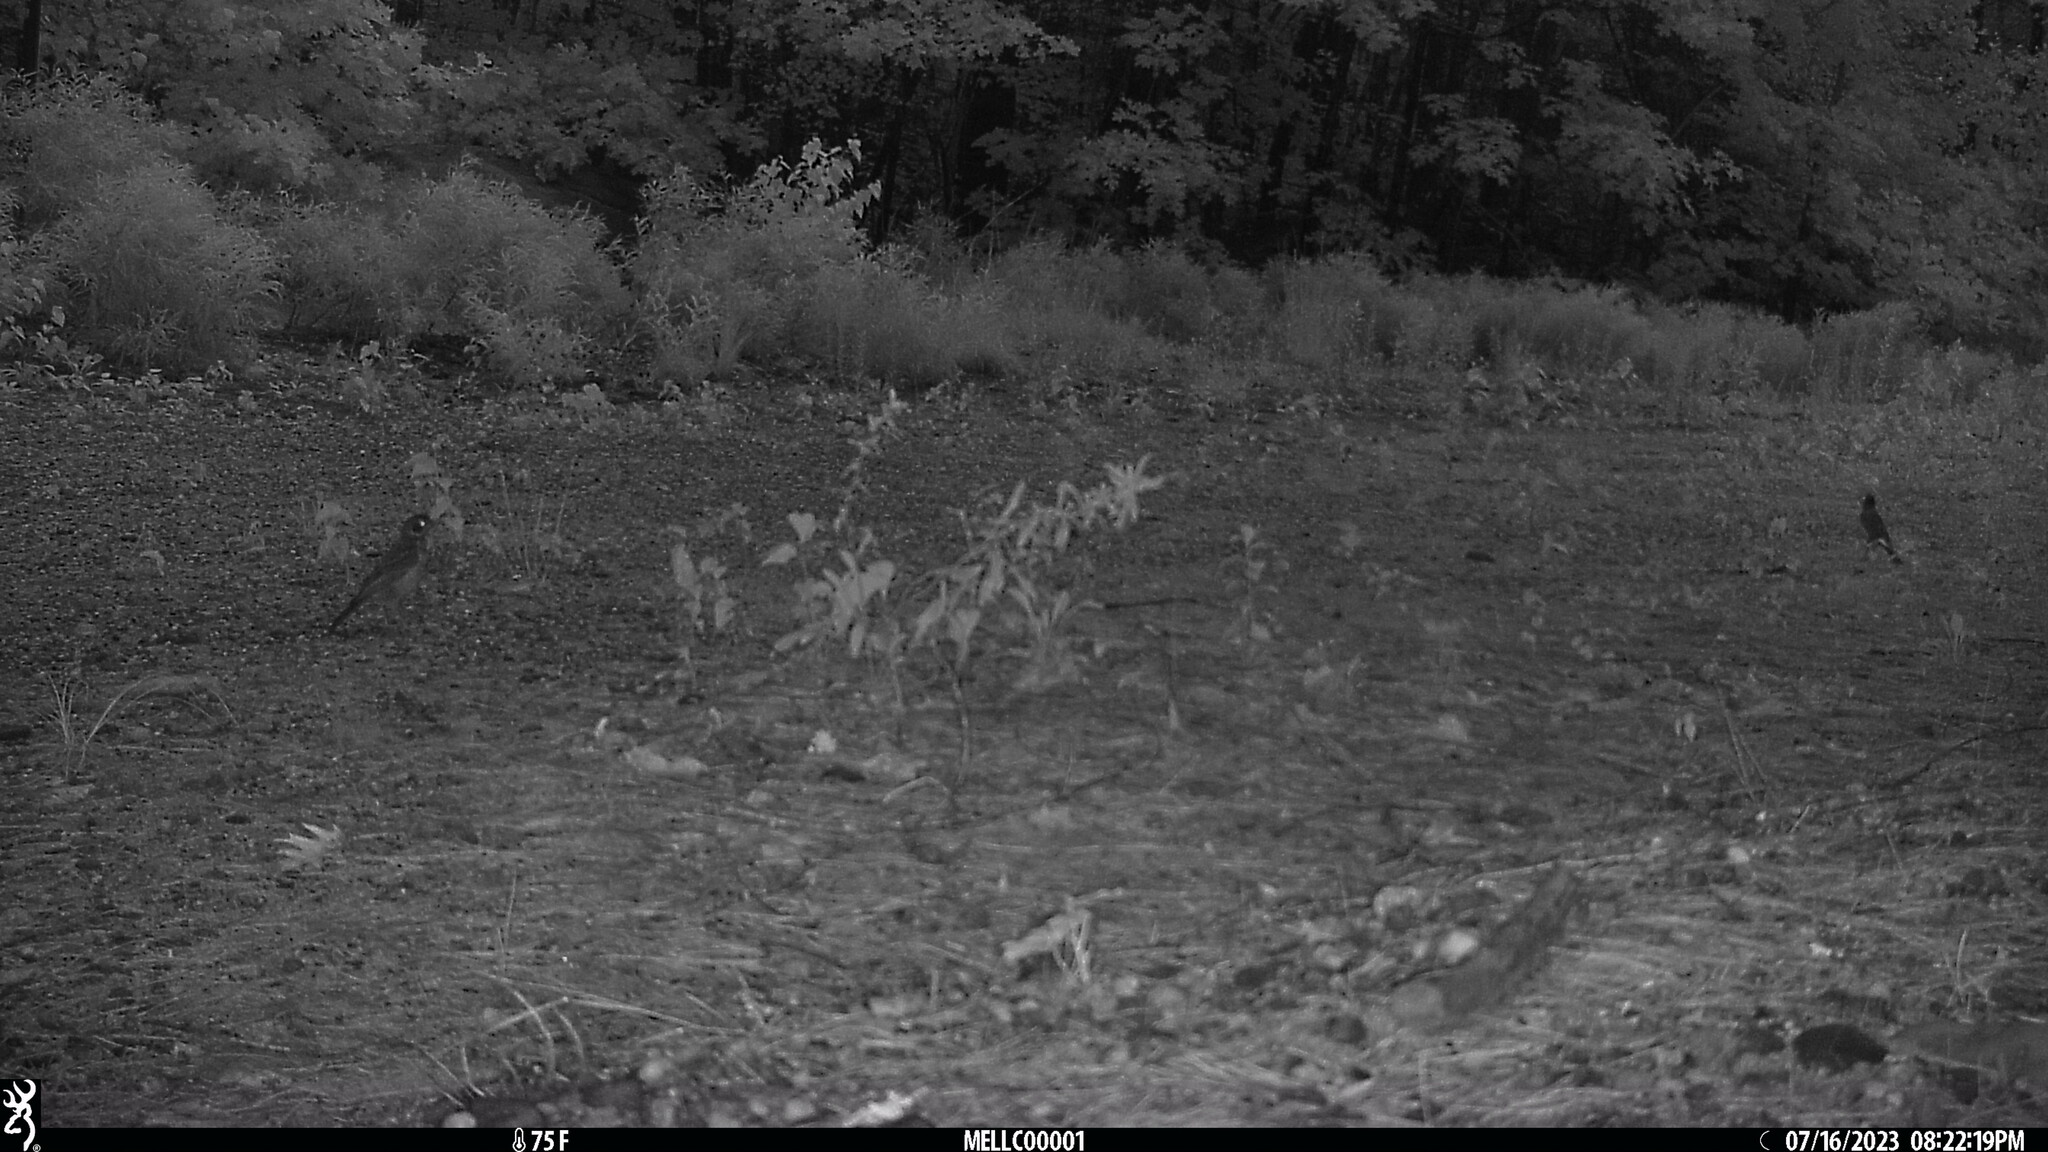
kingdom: Animalia
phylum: Chordata
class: Aves
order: Passeriformes
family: Turdidae
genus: Turdus
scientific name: Turdus migratorius
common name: American robin
